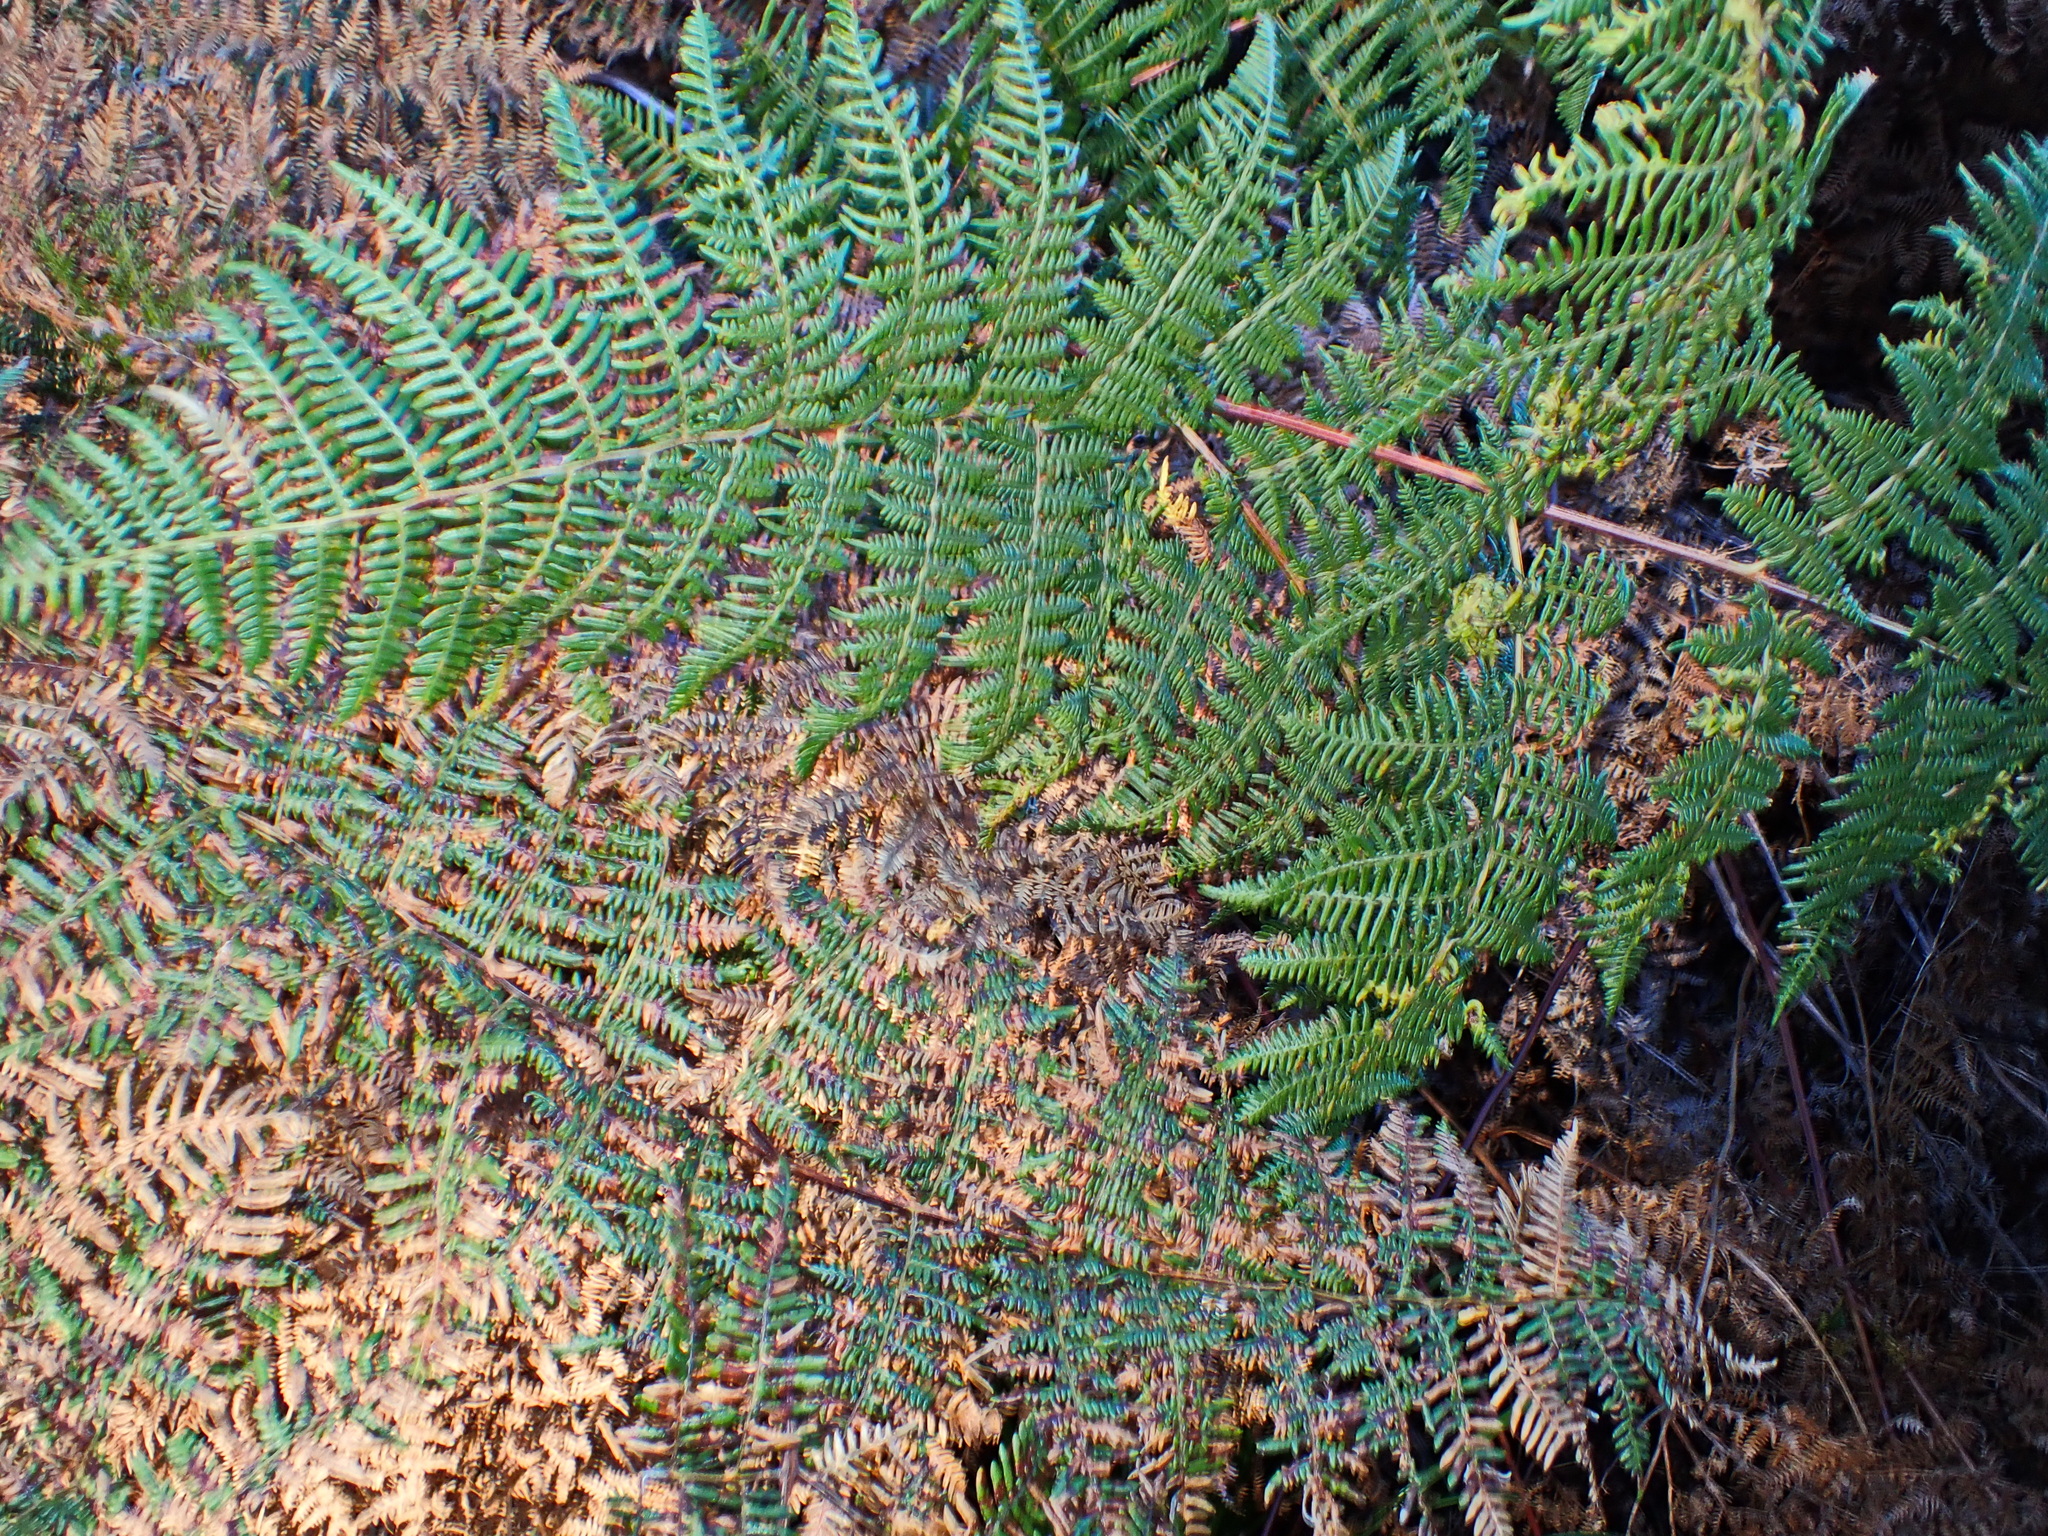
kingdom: Plantae
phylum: Tracheophyta
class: Polypodiopsida
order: Polypodiales
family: Dennstaedtiaceae
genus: Pteridium
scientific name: Pteridium aquilinum
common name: Bracken
